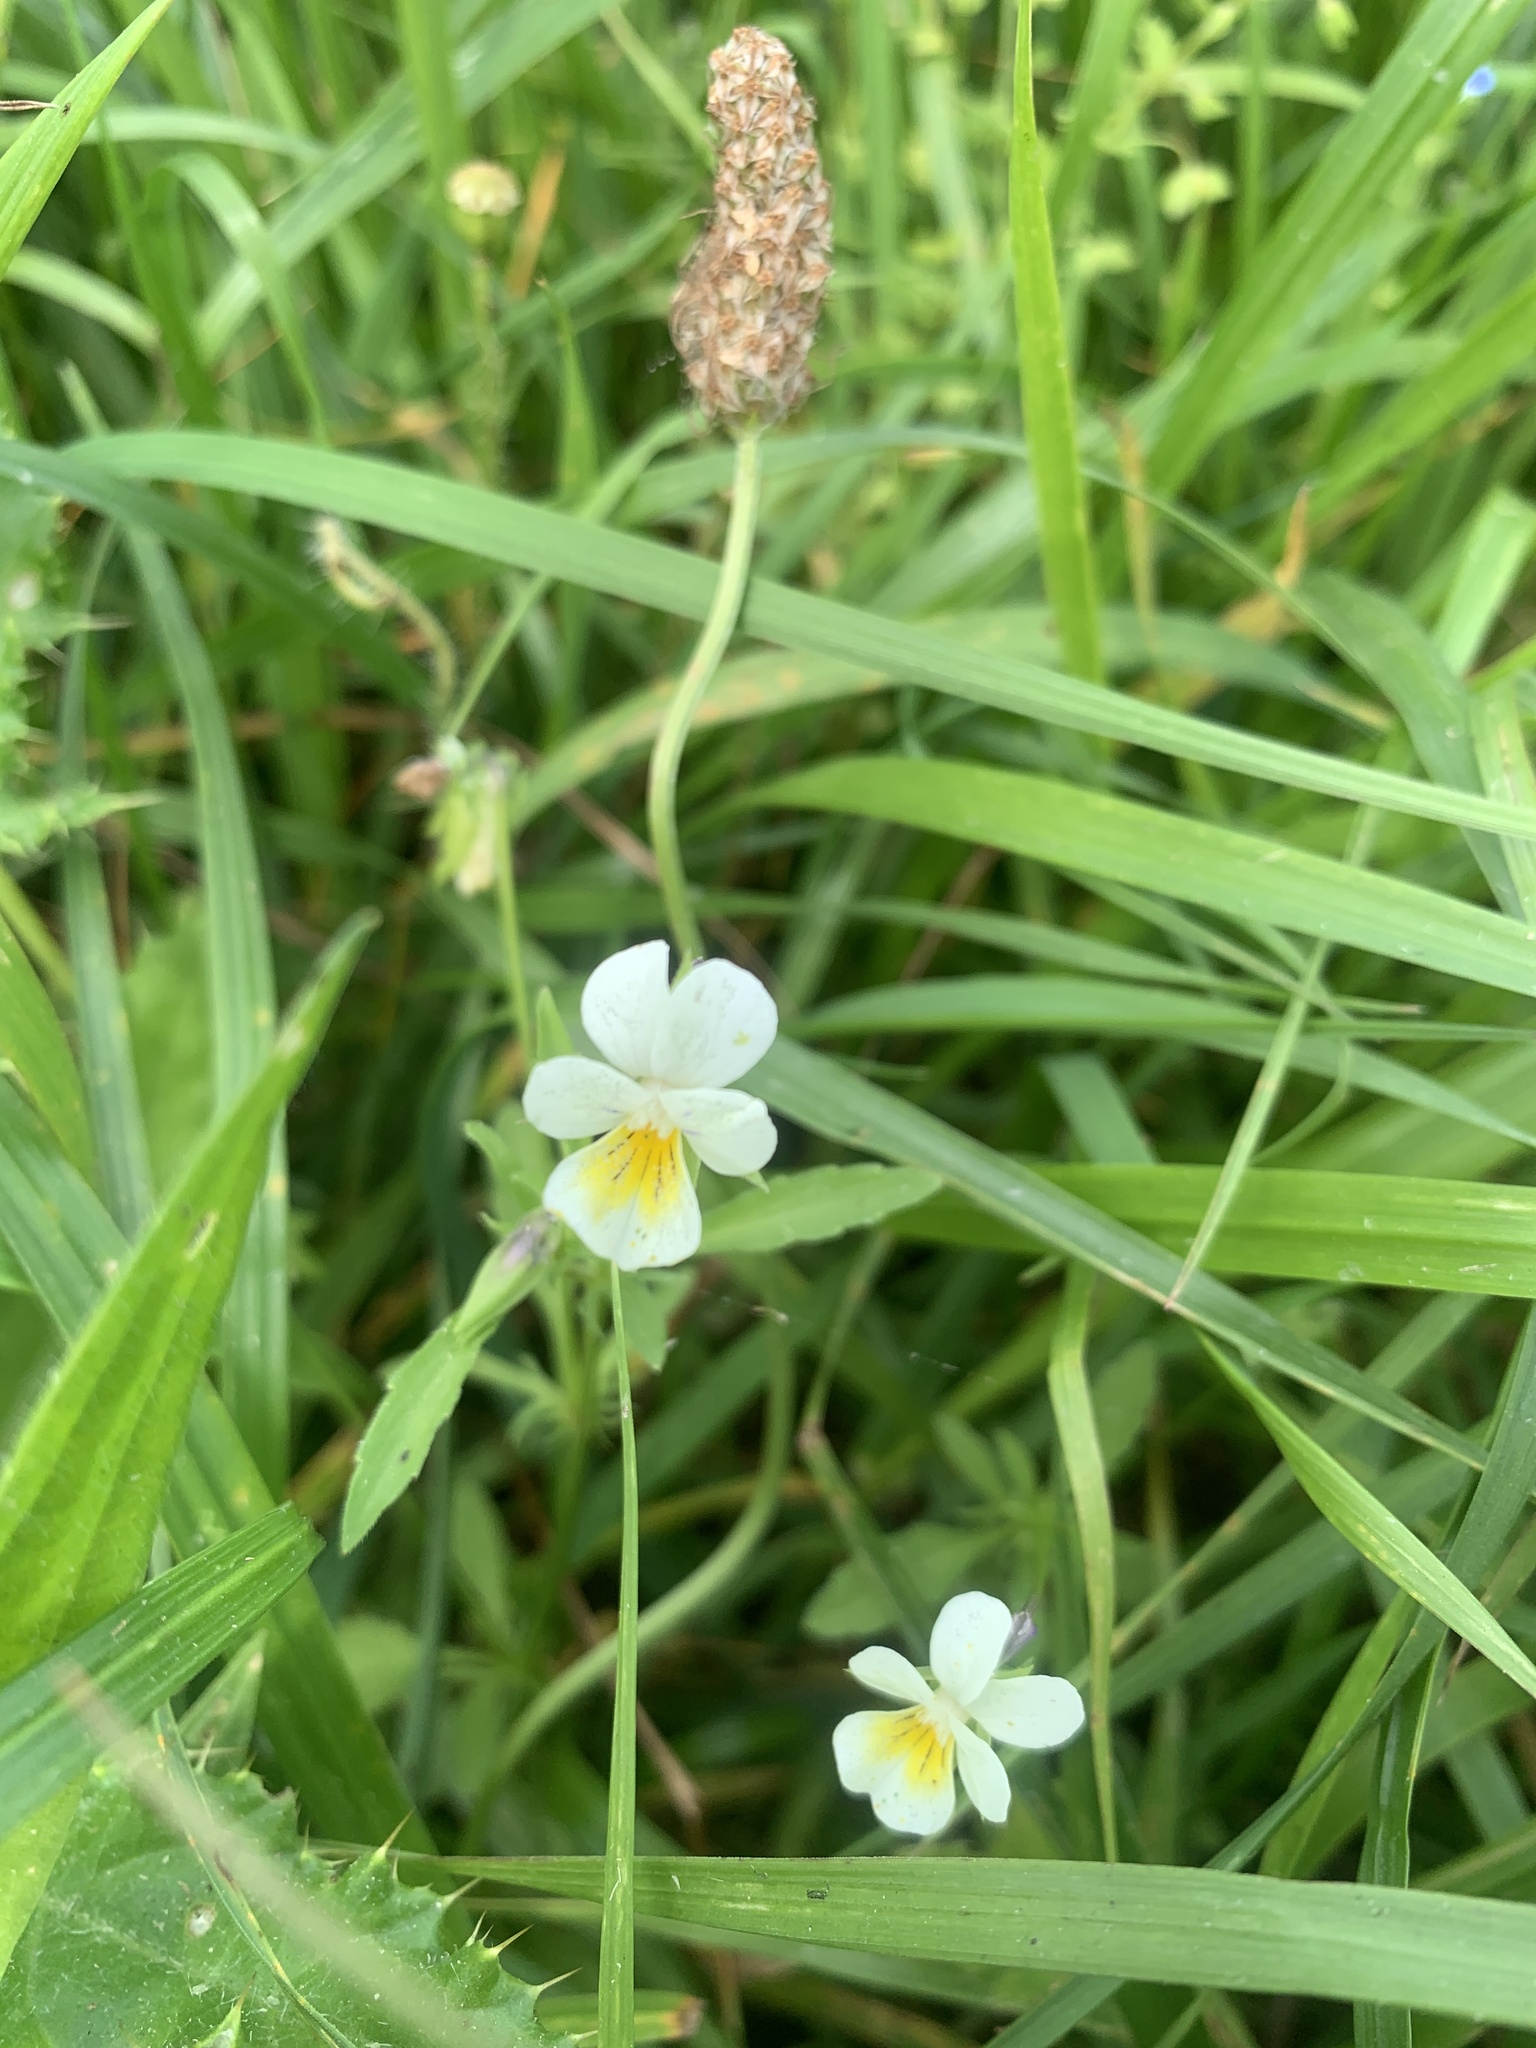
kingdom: Plantae
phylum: Tracheophyta
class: Magnoliopsida
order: Malpighiales
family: Violaceae
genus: Viola
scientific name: Viola arvensis
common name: Field pansy
